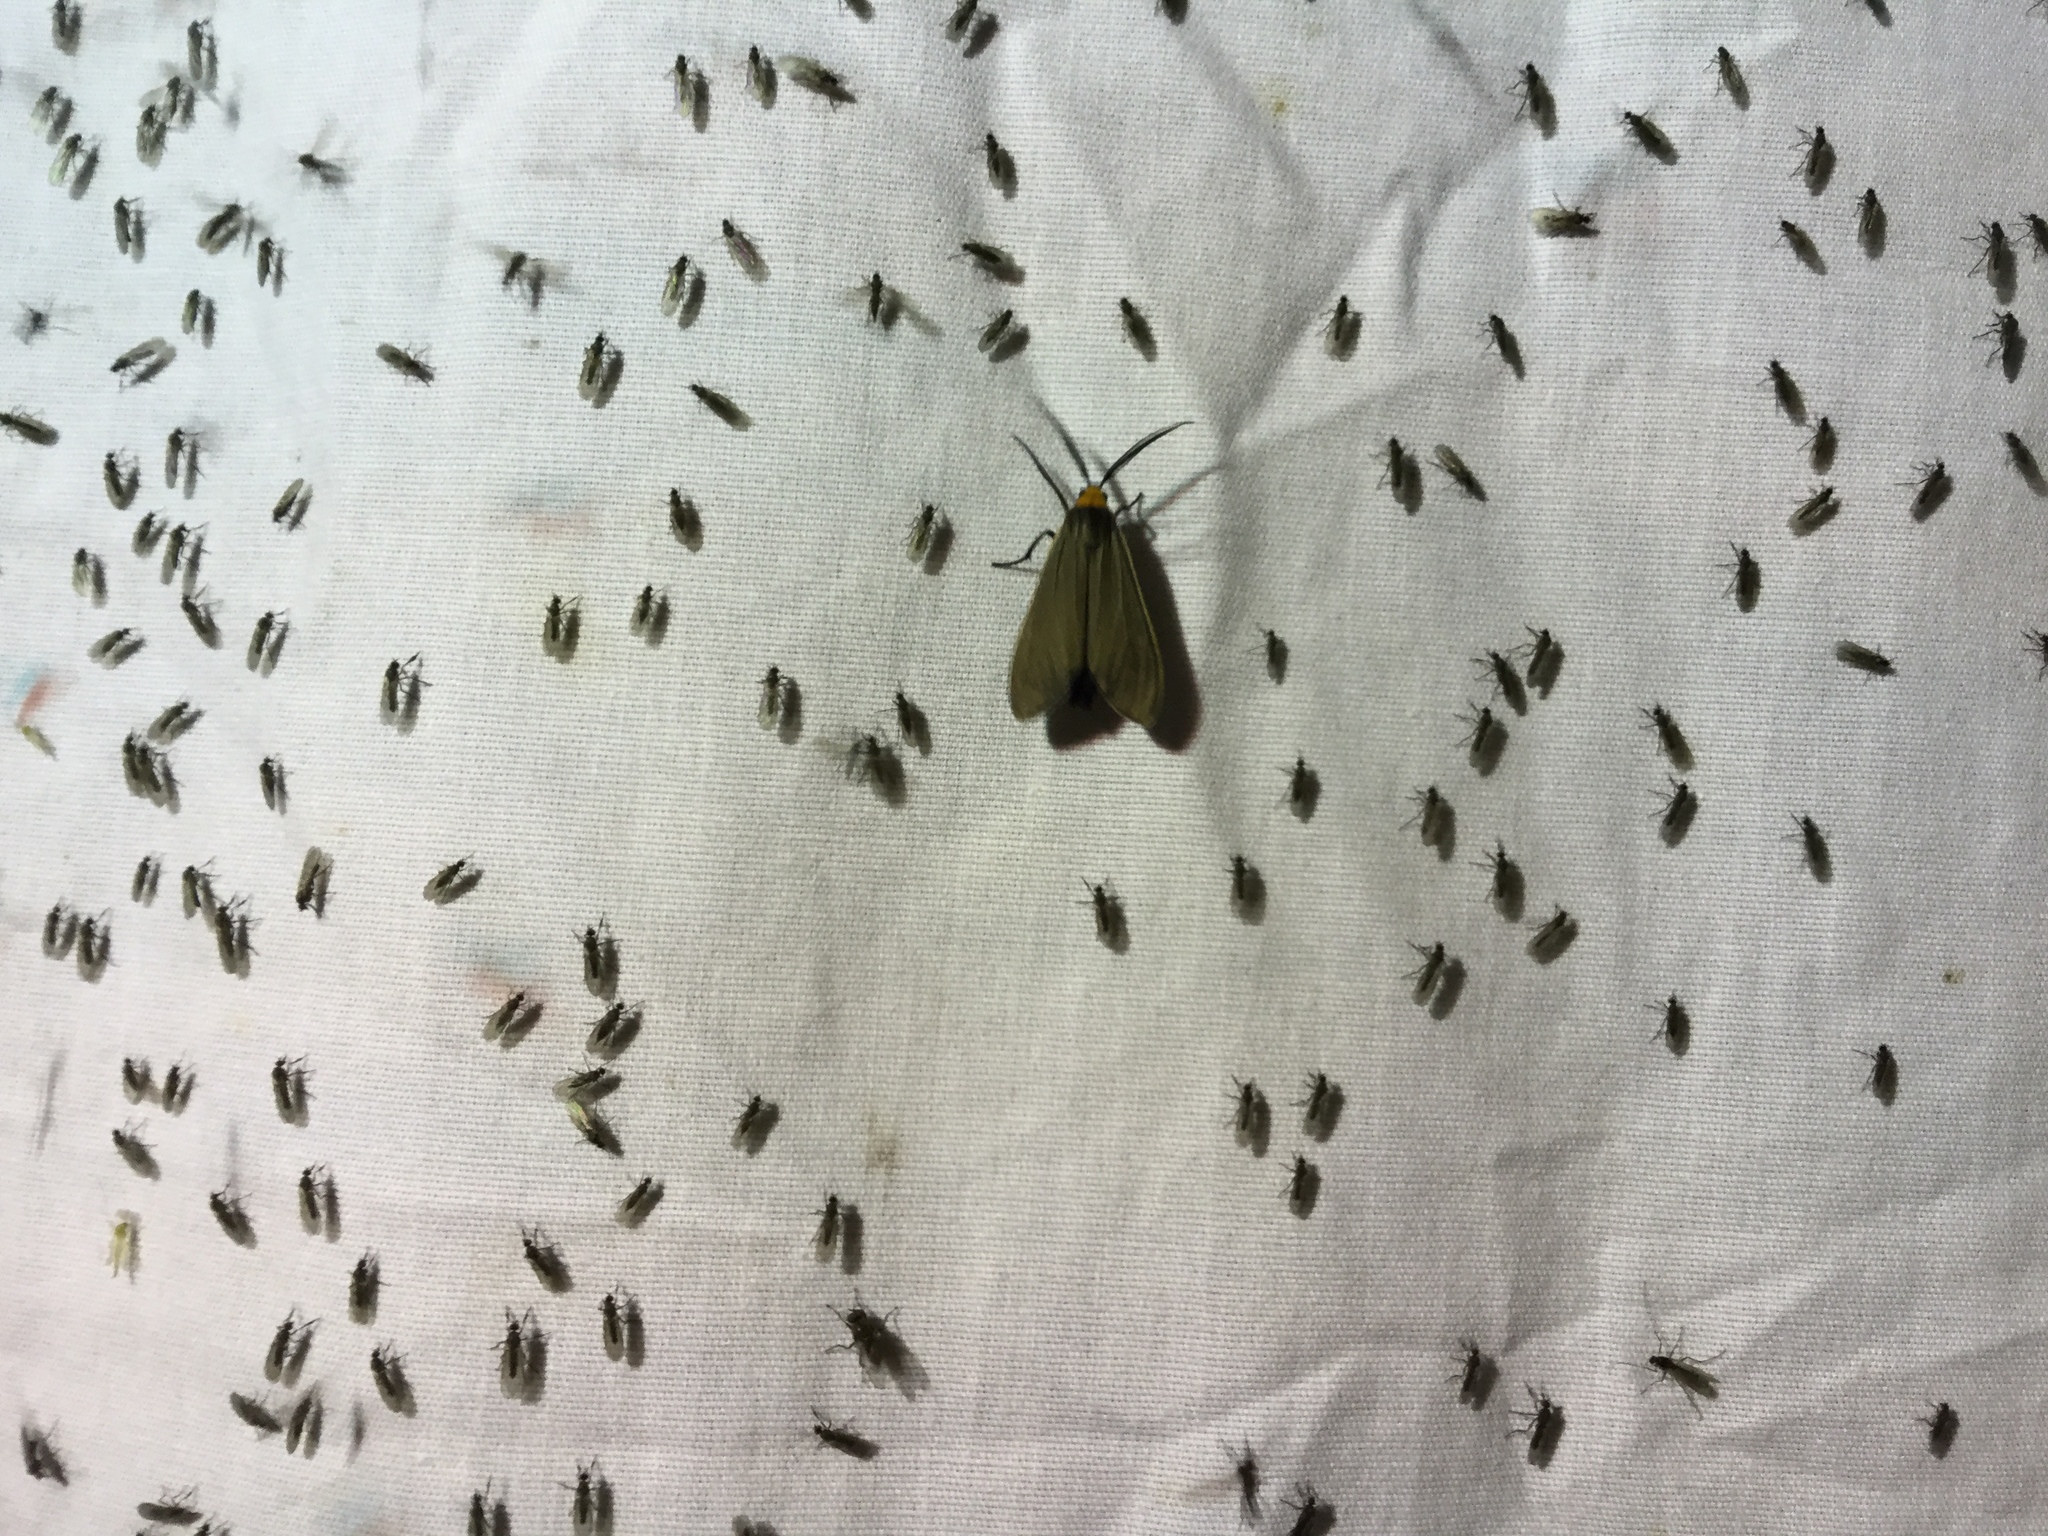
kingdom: Animalia
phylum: Arthropoda
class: Insecta
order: Lepidoptera
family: Erebidae
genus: Cisseps
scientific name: Cisseps fulvicollis
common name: Yellow-collared scape moth
